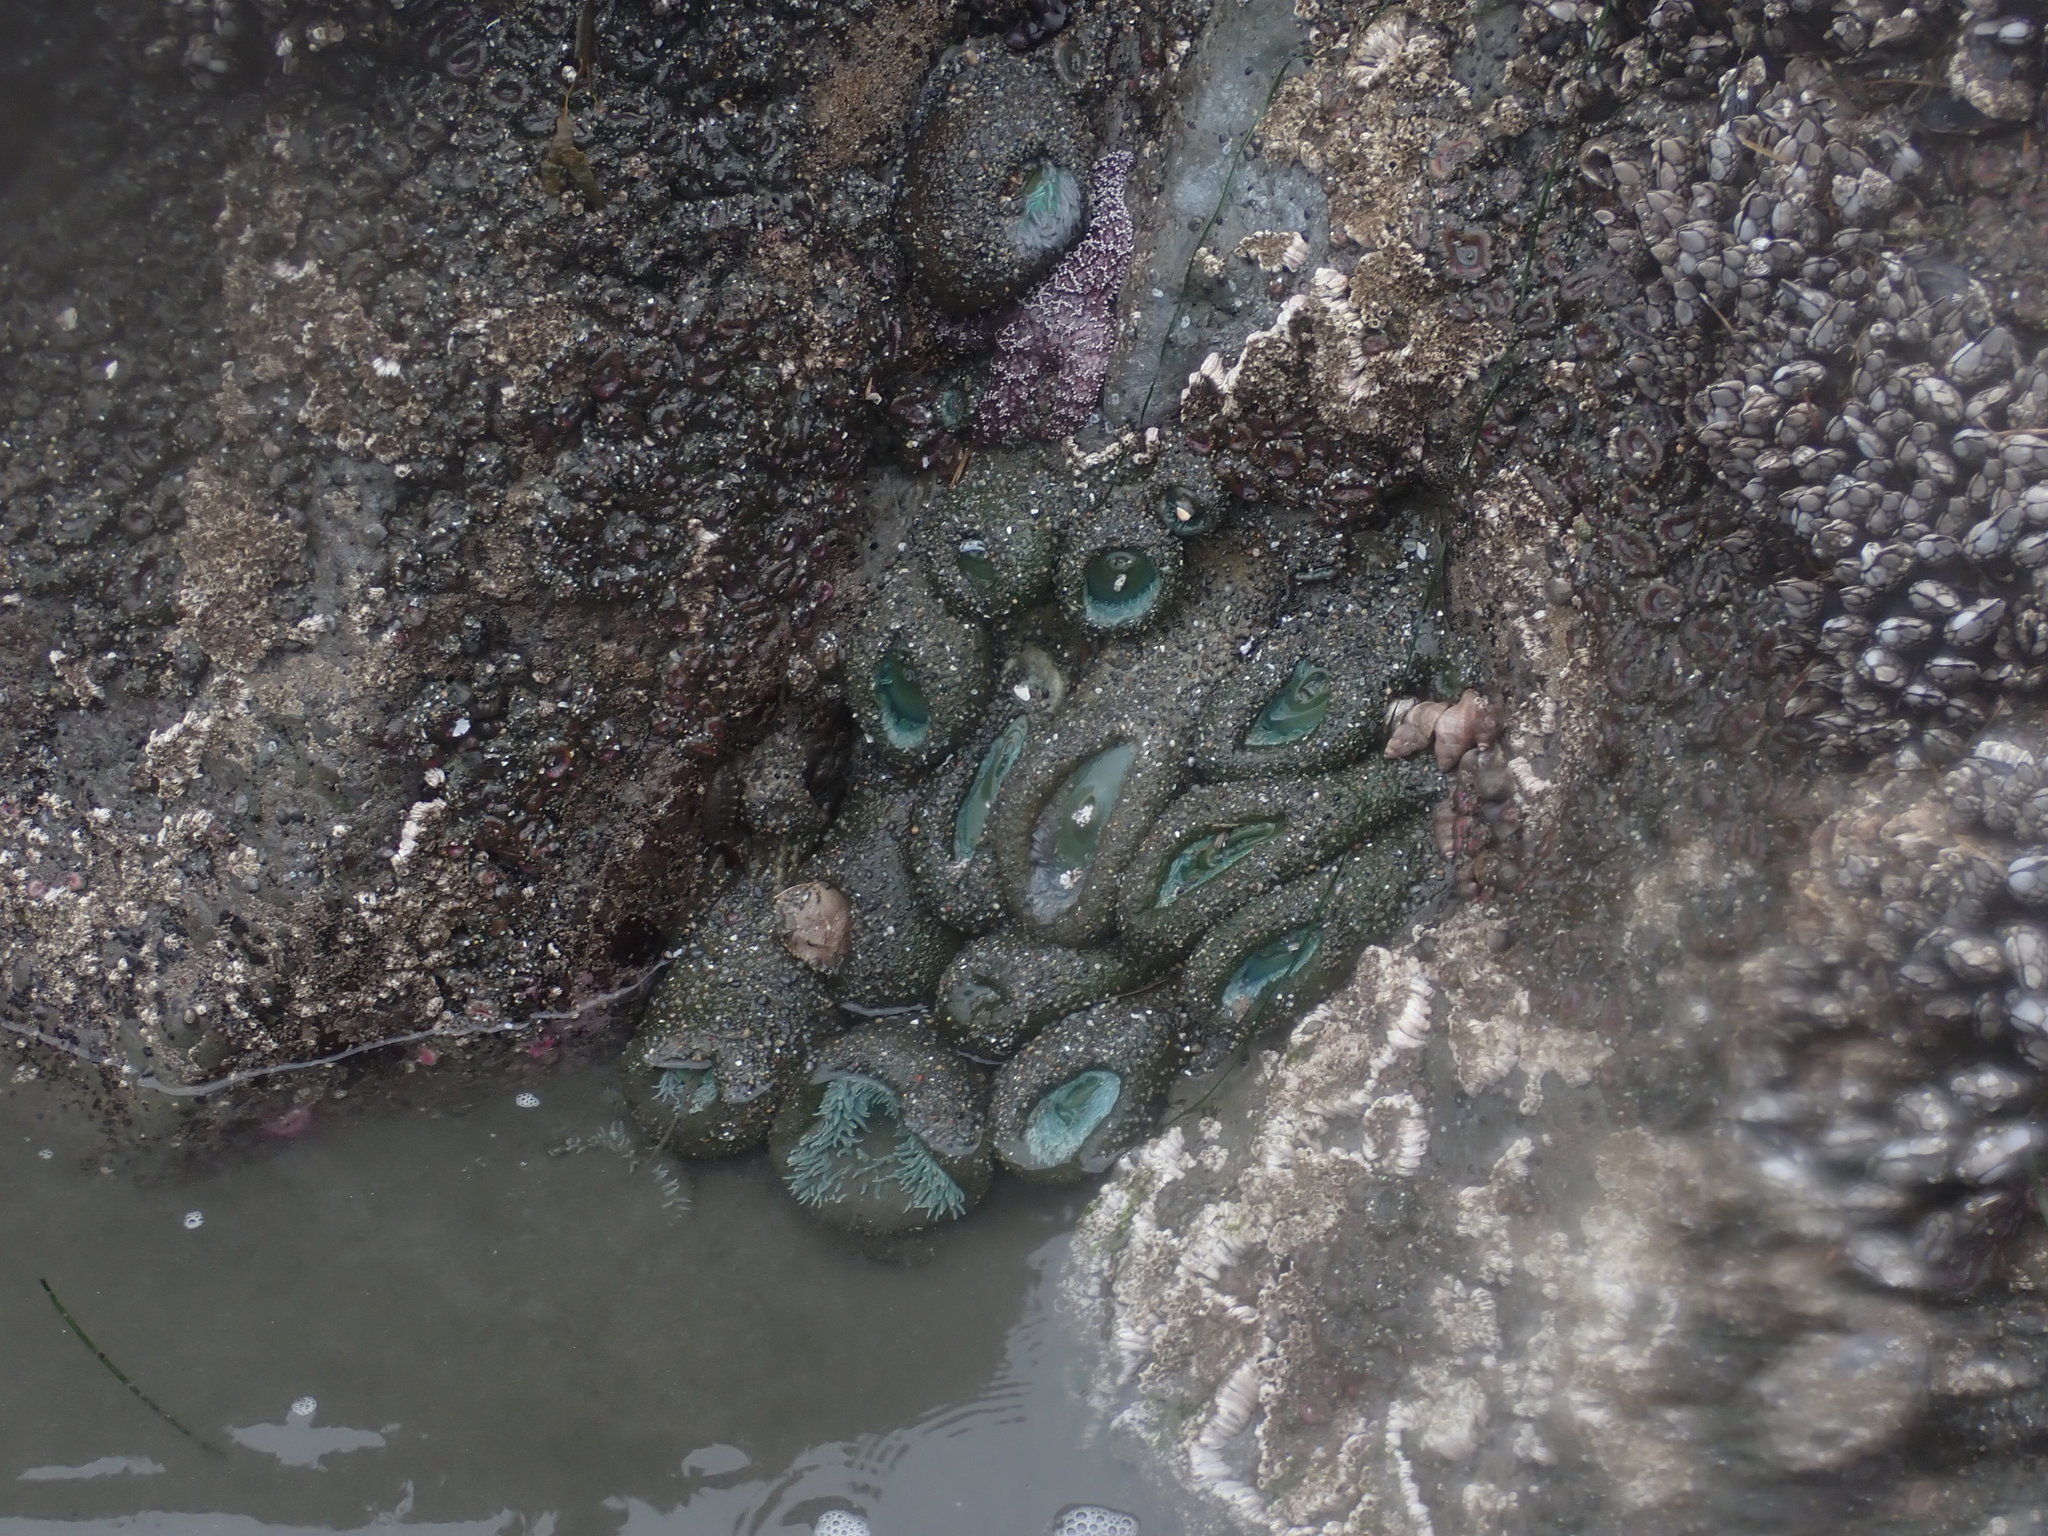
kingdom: Animalia
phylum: Cnidaria
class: Anthozoa
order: Actiniaria
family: Actiniidae
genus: Anthopleura
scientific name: Anthopleura xanthogrammica
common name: Giant green anemone
